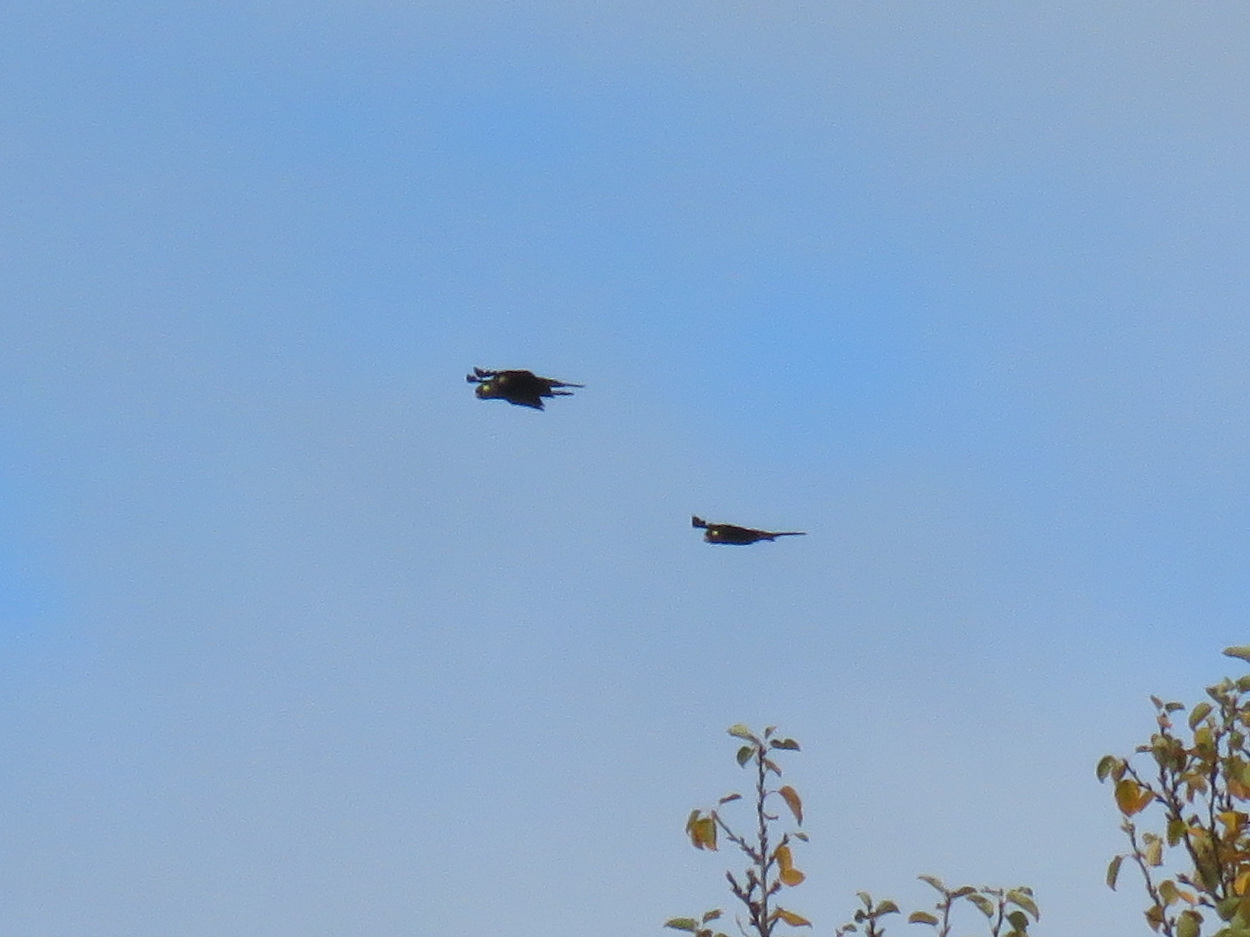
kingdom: Animalia
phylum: Chordata
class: Aves
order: Psittaciformes
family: Cacatuidae
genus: Zanda
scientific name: Zanda funerea
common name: Yellow-tailed black-cockatoo
